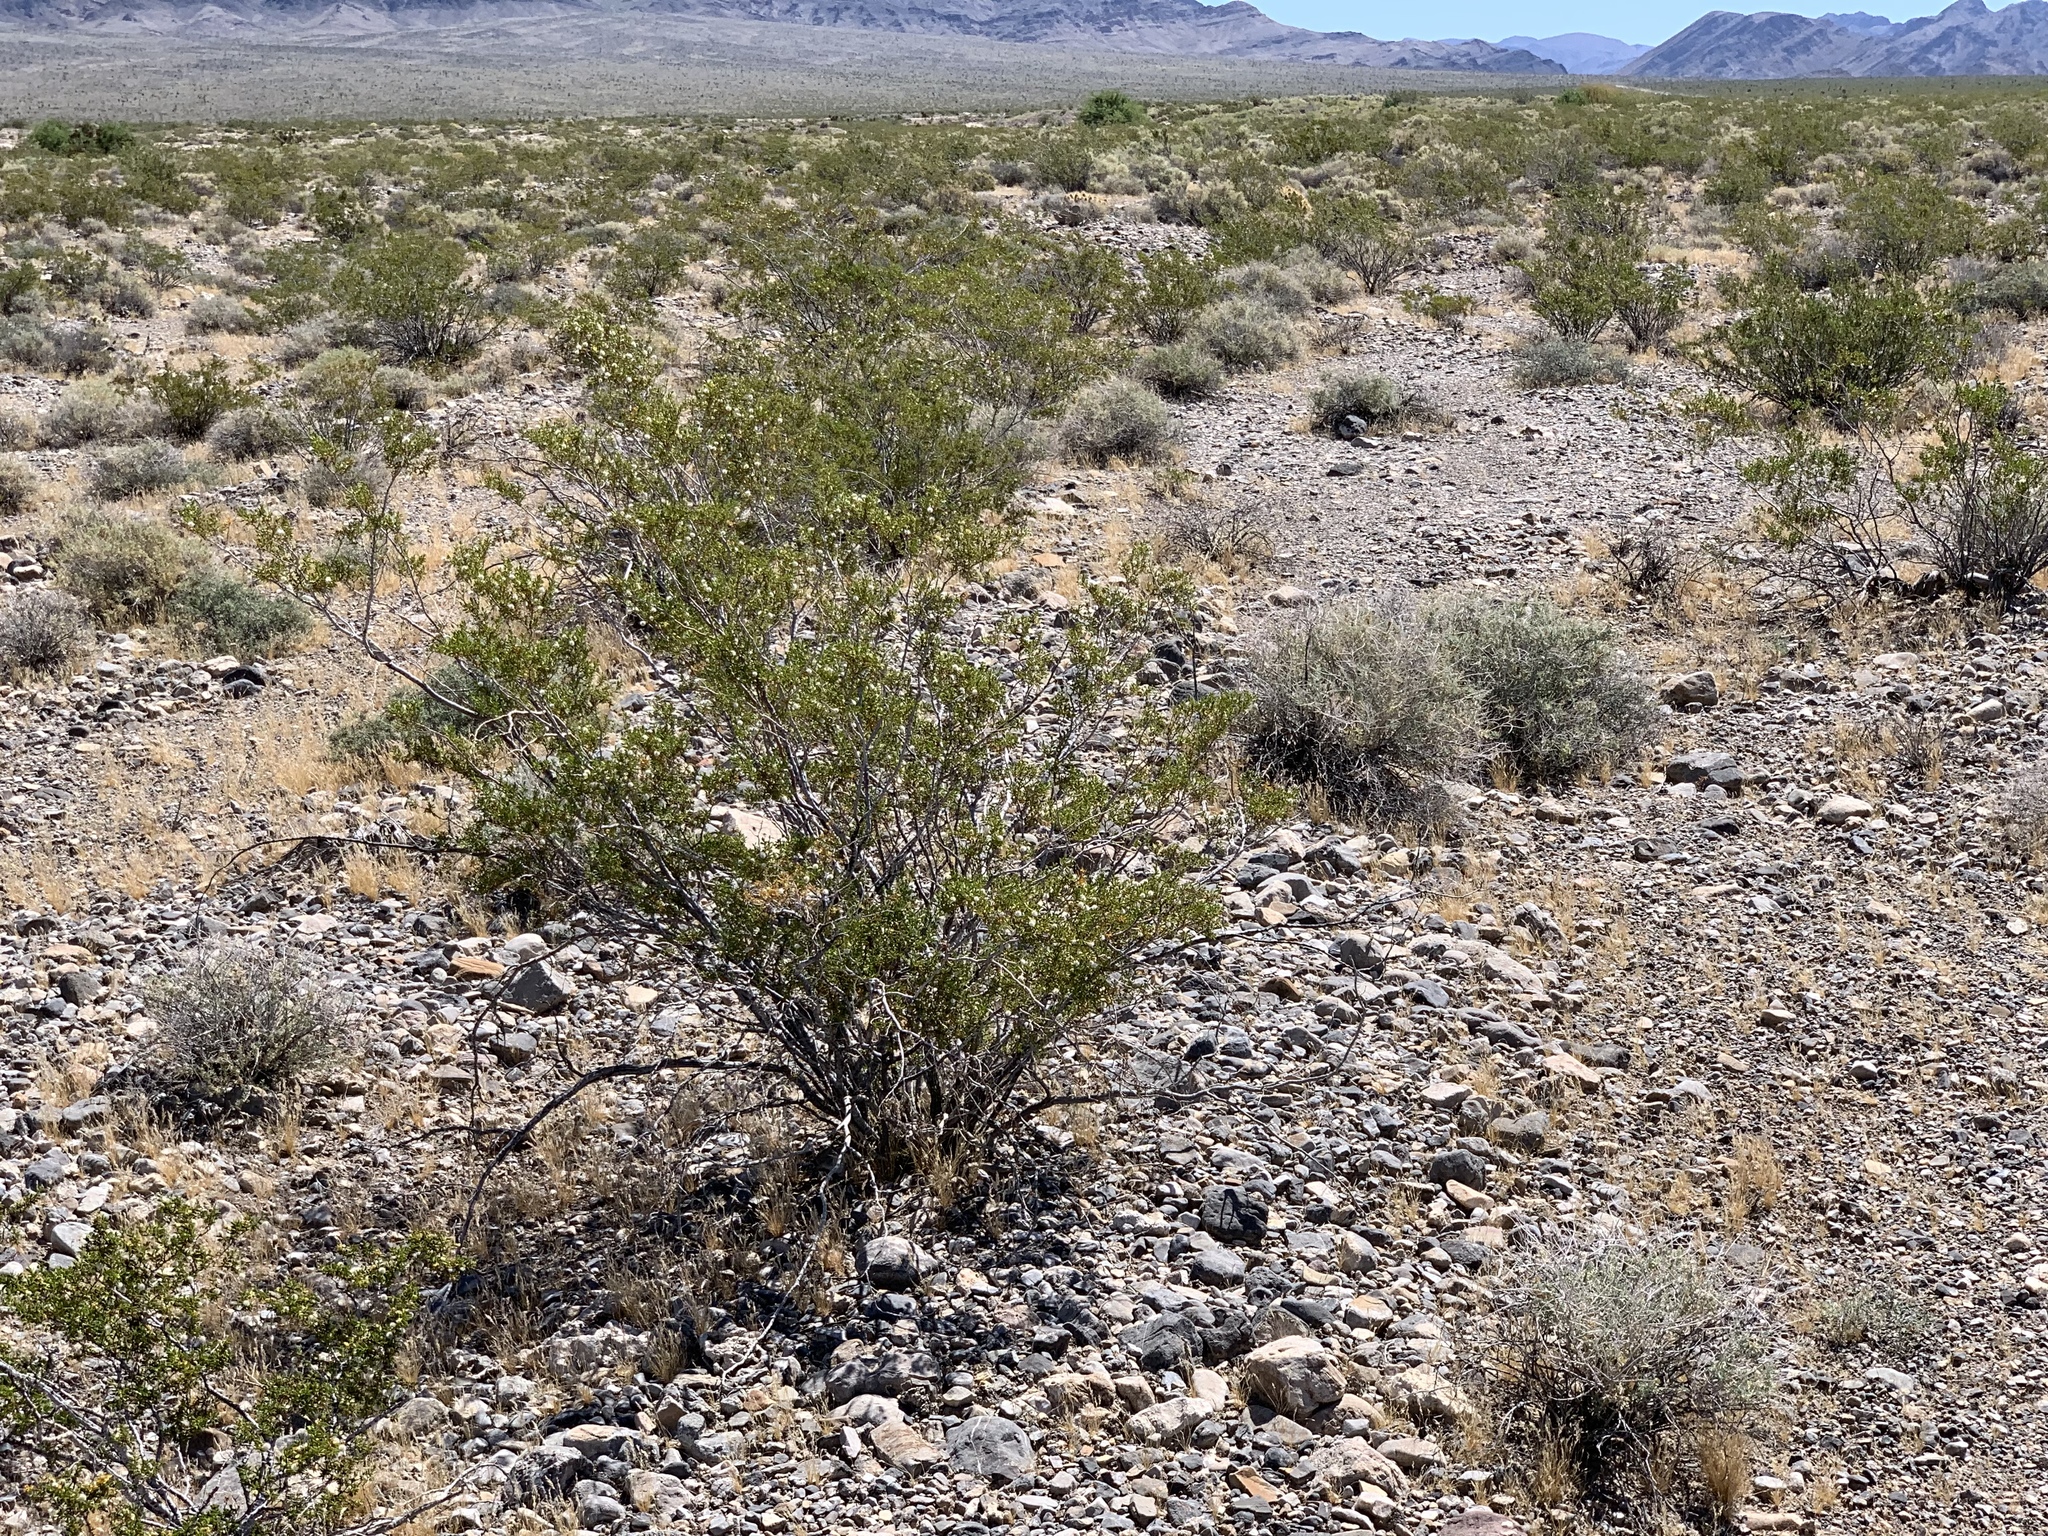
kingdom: Plantae
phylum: Tracheophyta
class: Magnoliopsida
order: Zygophyllales
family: Zygophyllaceae
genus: Larrea
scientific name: Larrea tridentata
